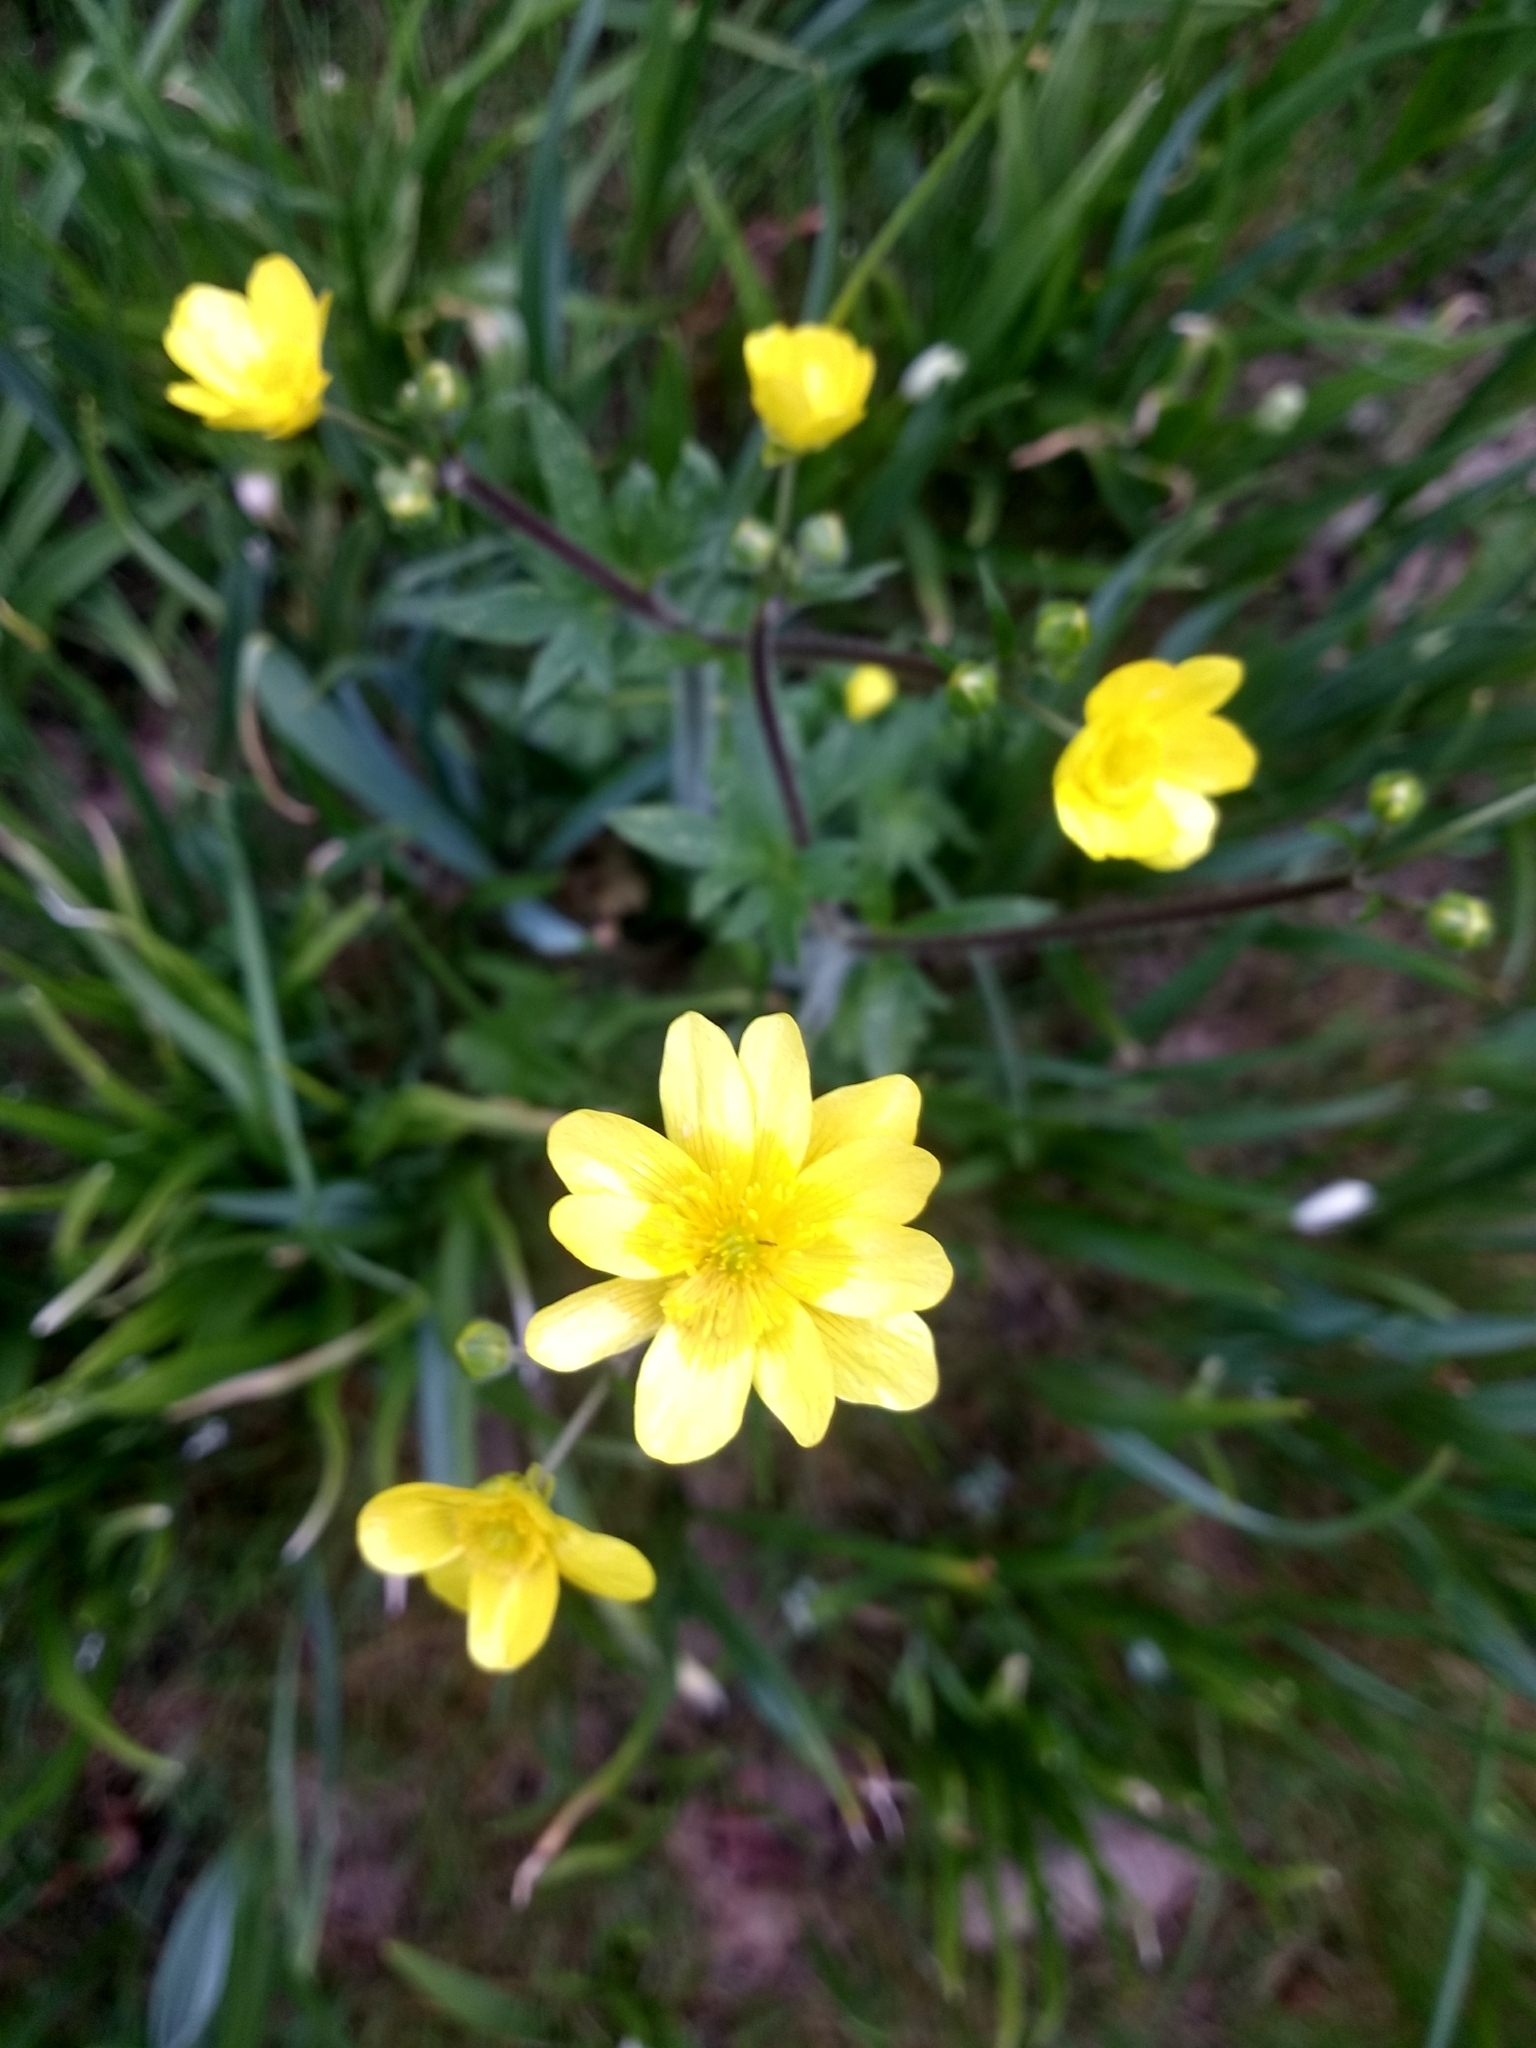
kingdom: Plantae
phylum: Tracheophyta
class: Magnoliopsida
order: Ranunculales
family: Ranunculaceae
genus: Ranunculus
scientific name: Ranunculus repens
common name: Creeping buttercup
